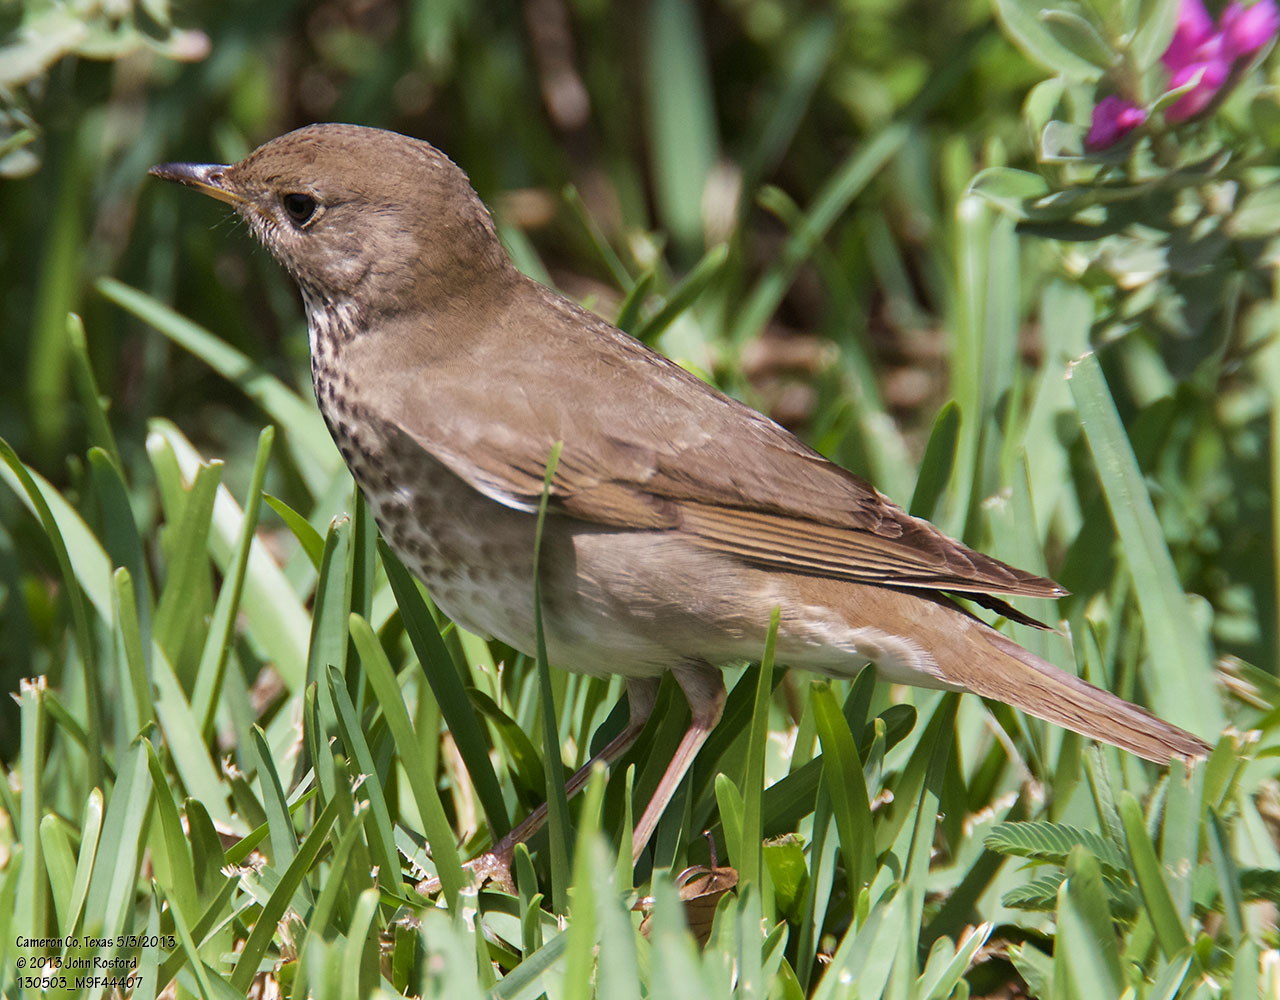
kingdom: Animalia
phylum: Chordata
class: Aves
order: Passeriformes
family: Turdidae
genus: Catharus
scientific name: Catharus minimus
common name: Grey-cheeked thrush
